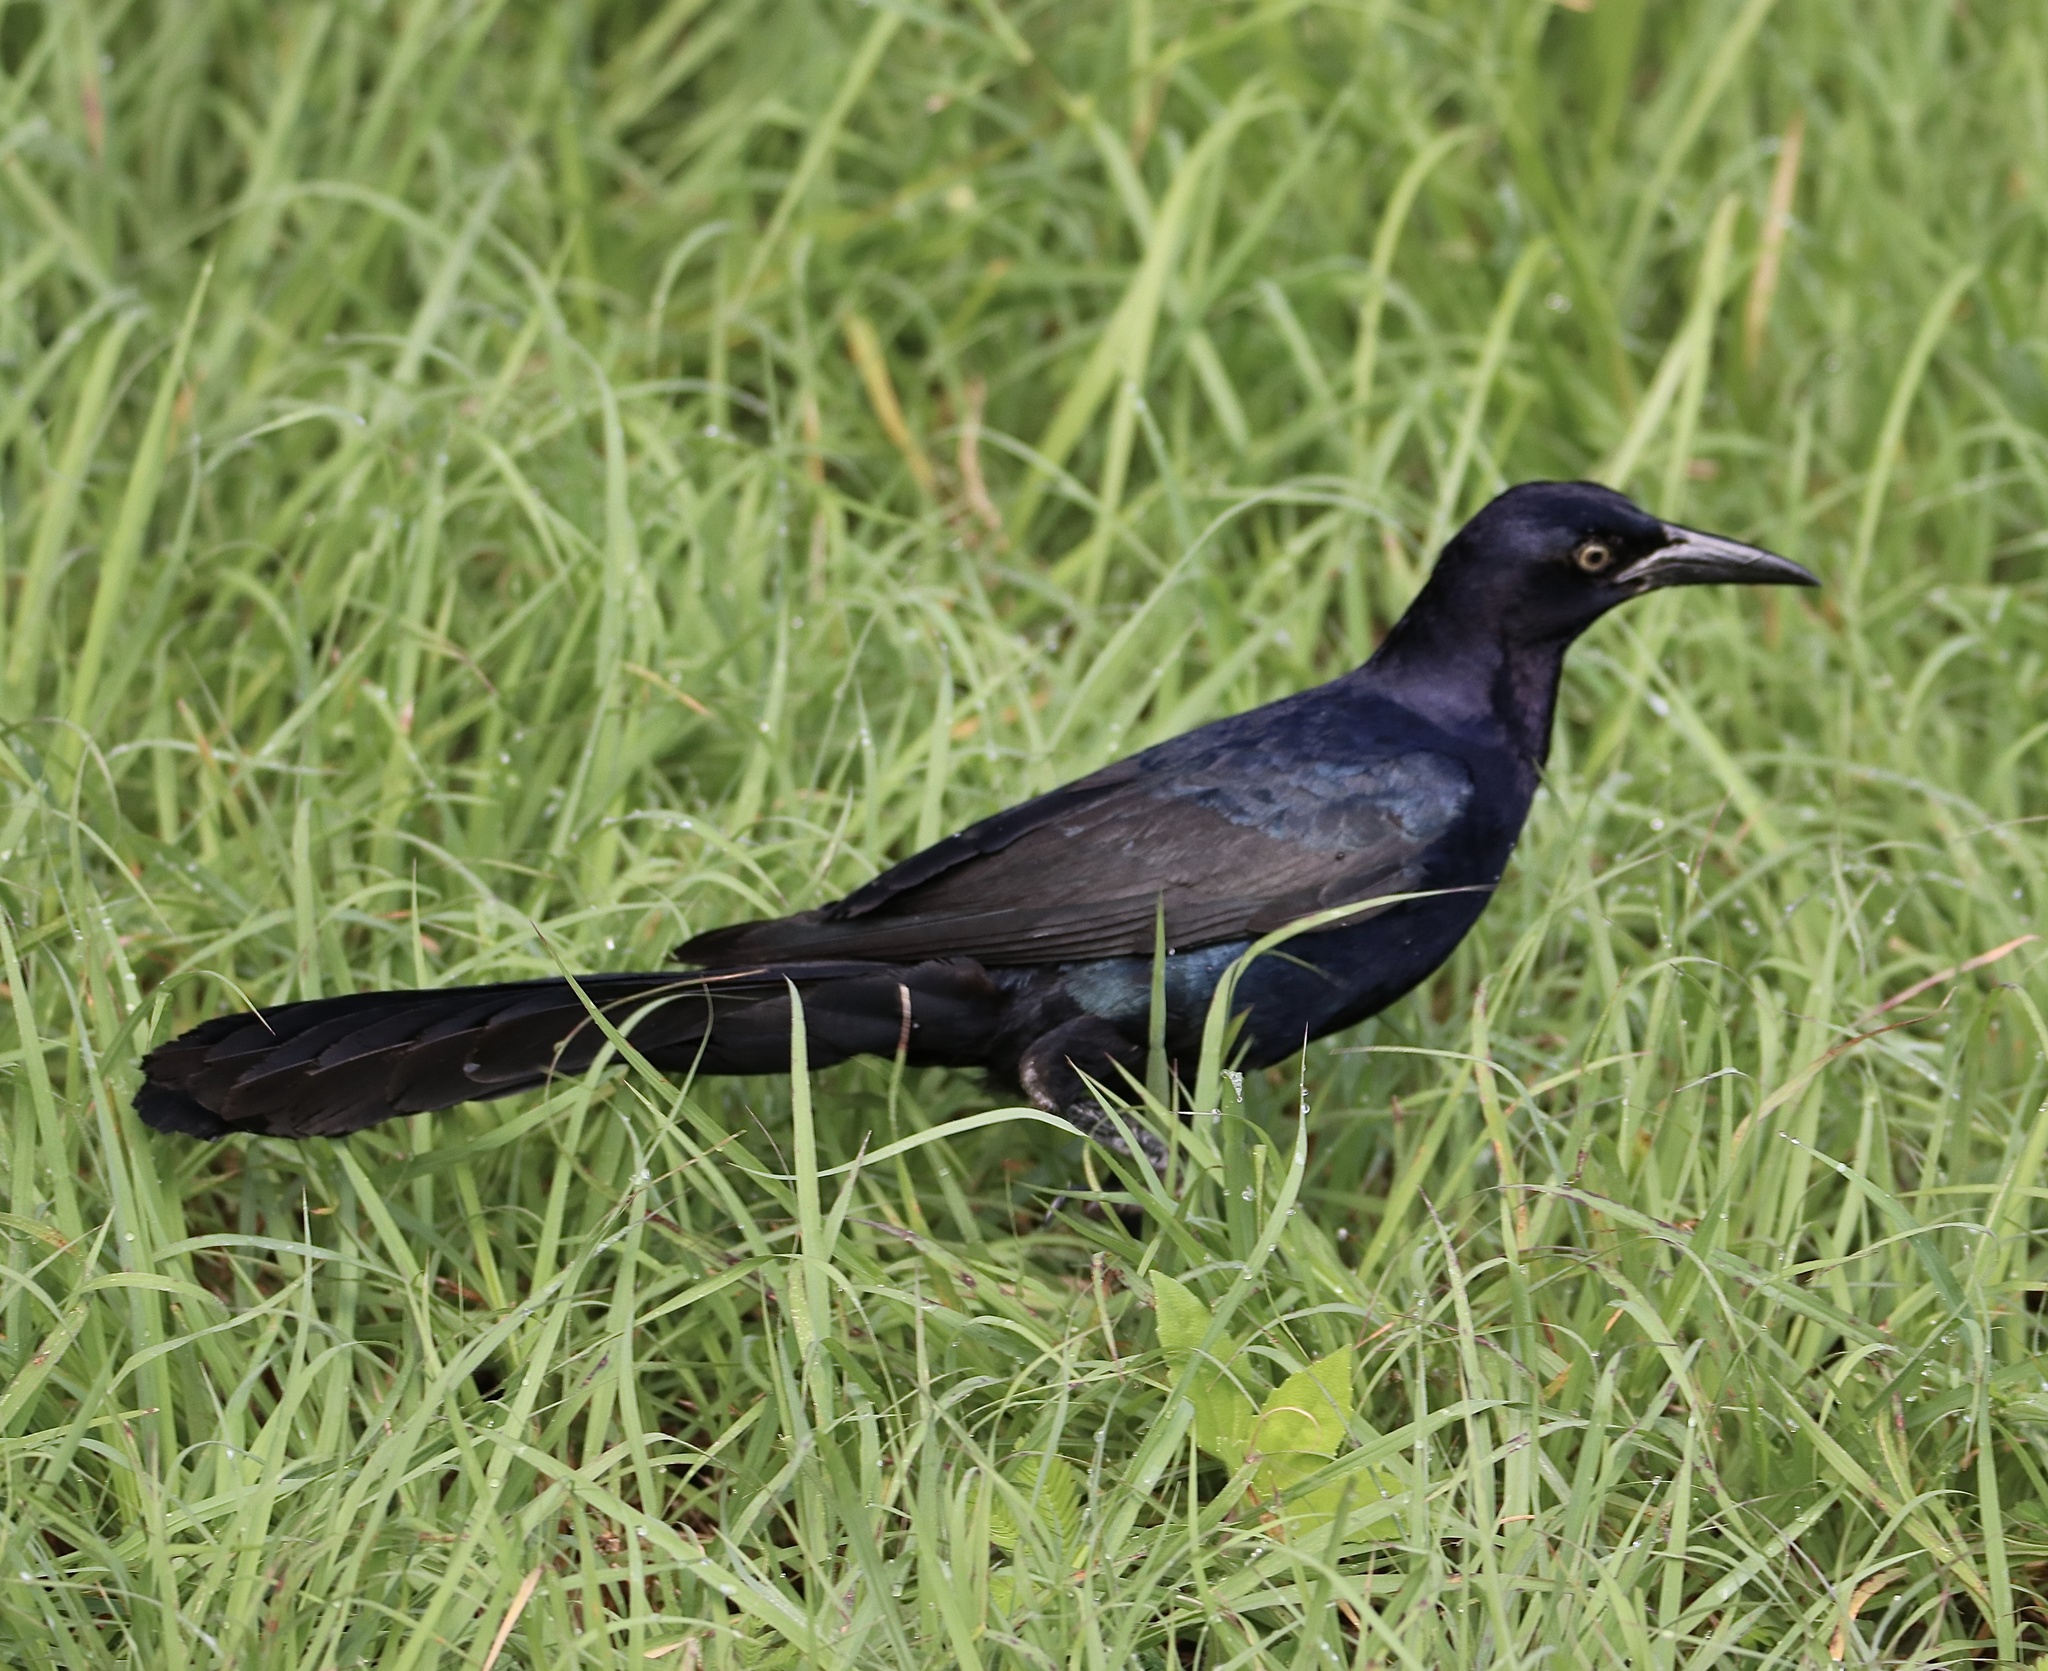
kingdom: Animalia
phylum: Chordata
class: Aves
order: Passeriformes
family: Icteridae
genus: Quiscalus
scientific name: Quiscalus mexicanus
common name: Great-tailed grackle
